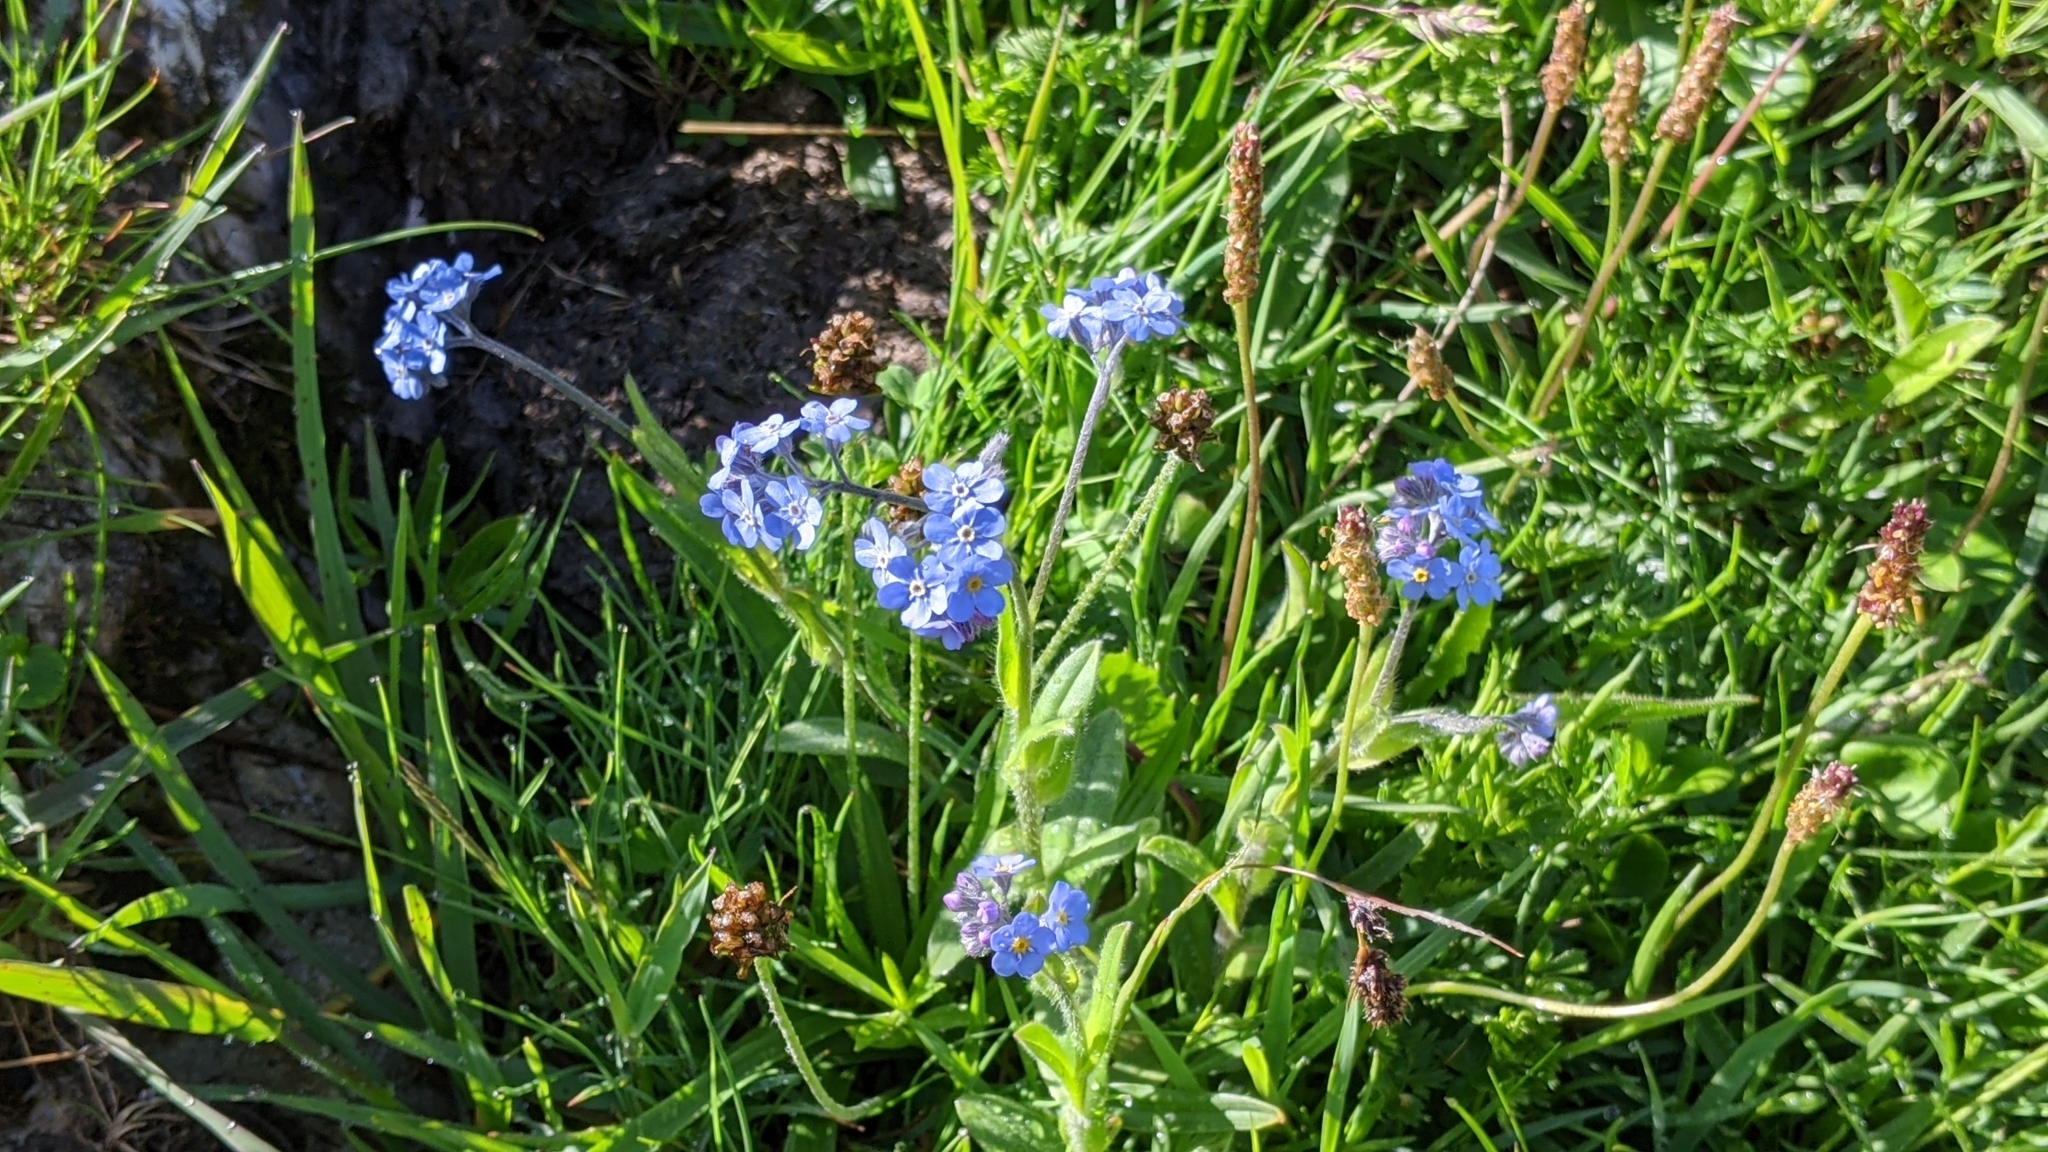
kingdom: Plantae
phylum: Tracheophyta
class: Magnoliopsida
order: Boraginales
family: Boraginaceae
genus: Myosotis
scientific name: Myosotis alpestris
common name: Alpine forget-me-not
